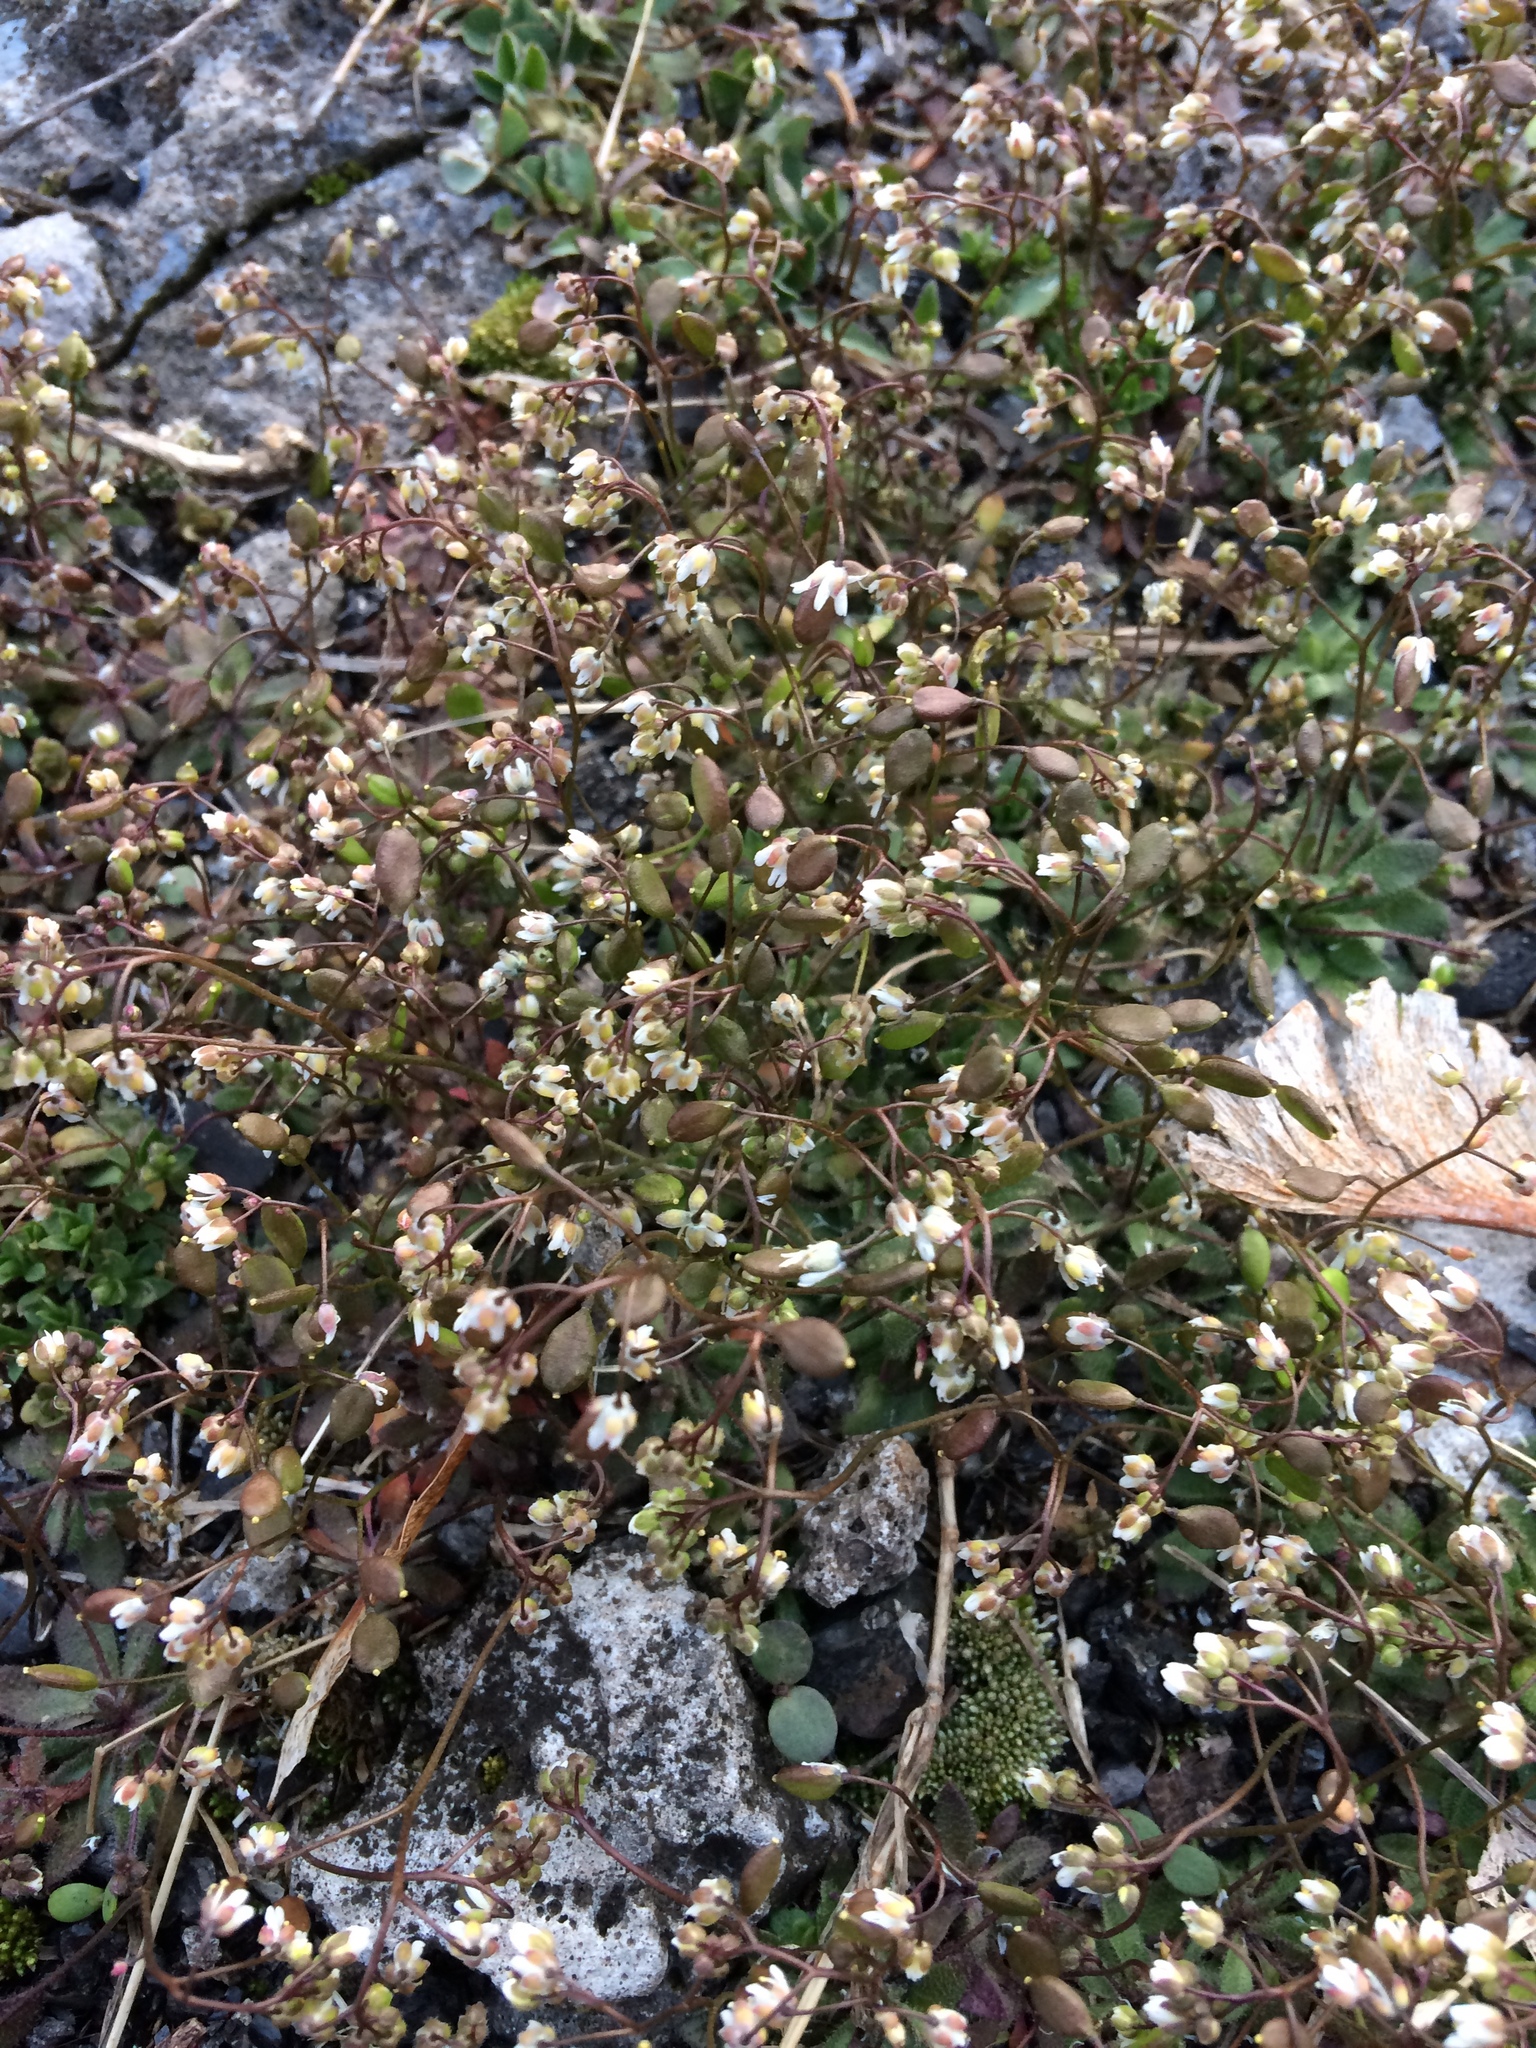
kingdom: Plantae
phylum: Tracheophyta
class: Magnoliopsida
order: Brassicales
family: Brassicaceae
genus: Draba
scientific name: Draba verna
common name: Spring draba
